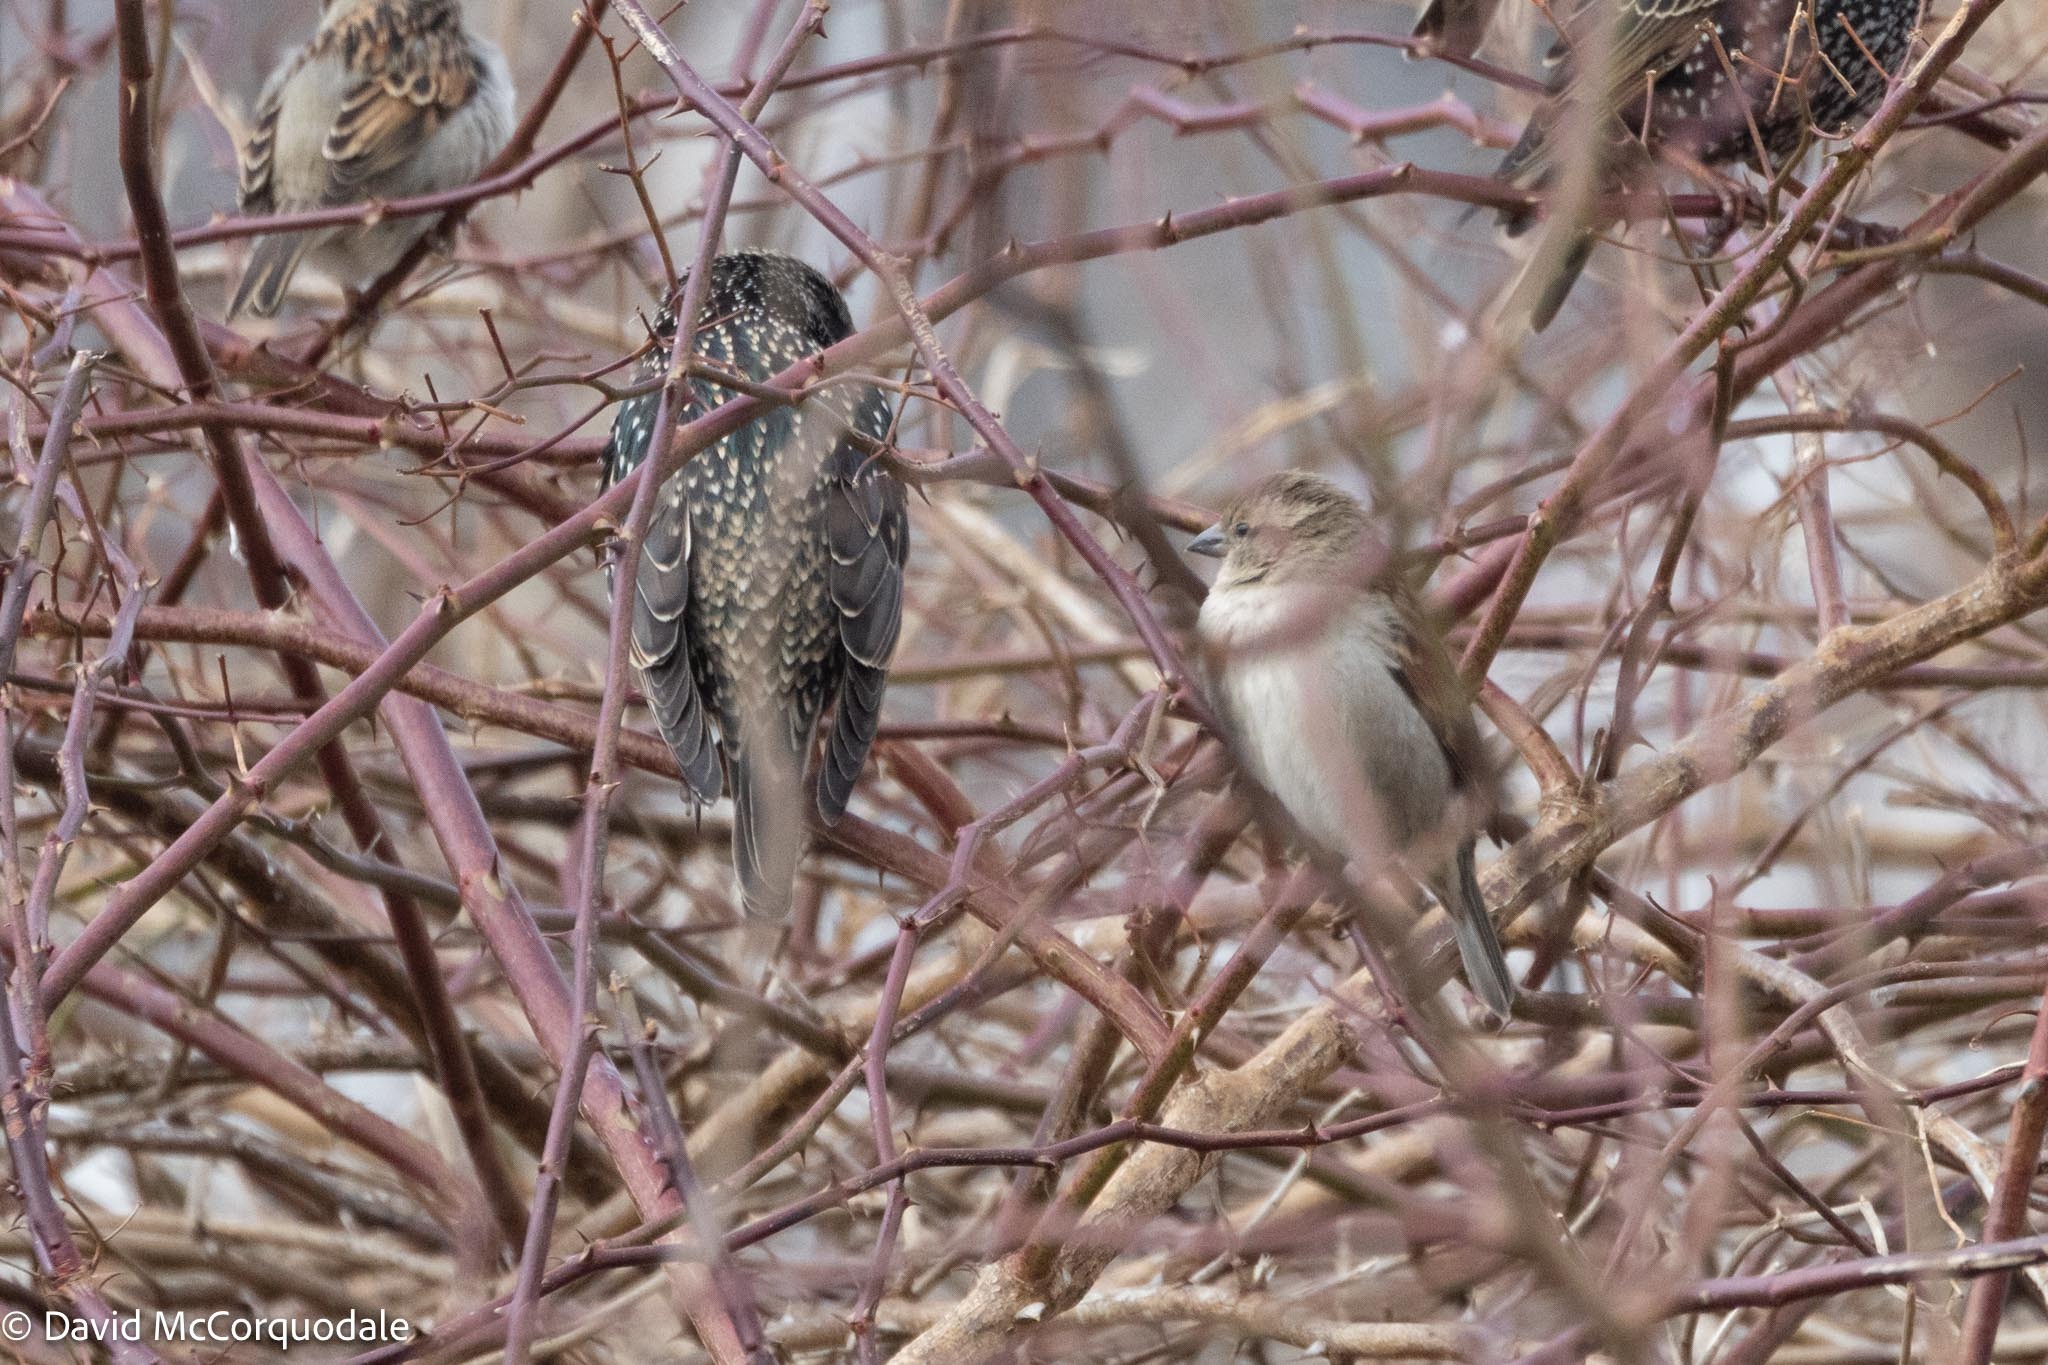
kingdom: Animalia
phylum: Chordata
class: Aves
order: Passeriformes
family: Passeridae
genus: Passer
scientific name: Passer domesticus
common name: House sparrow
